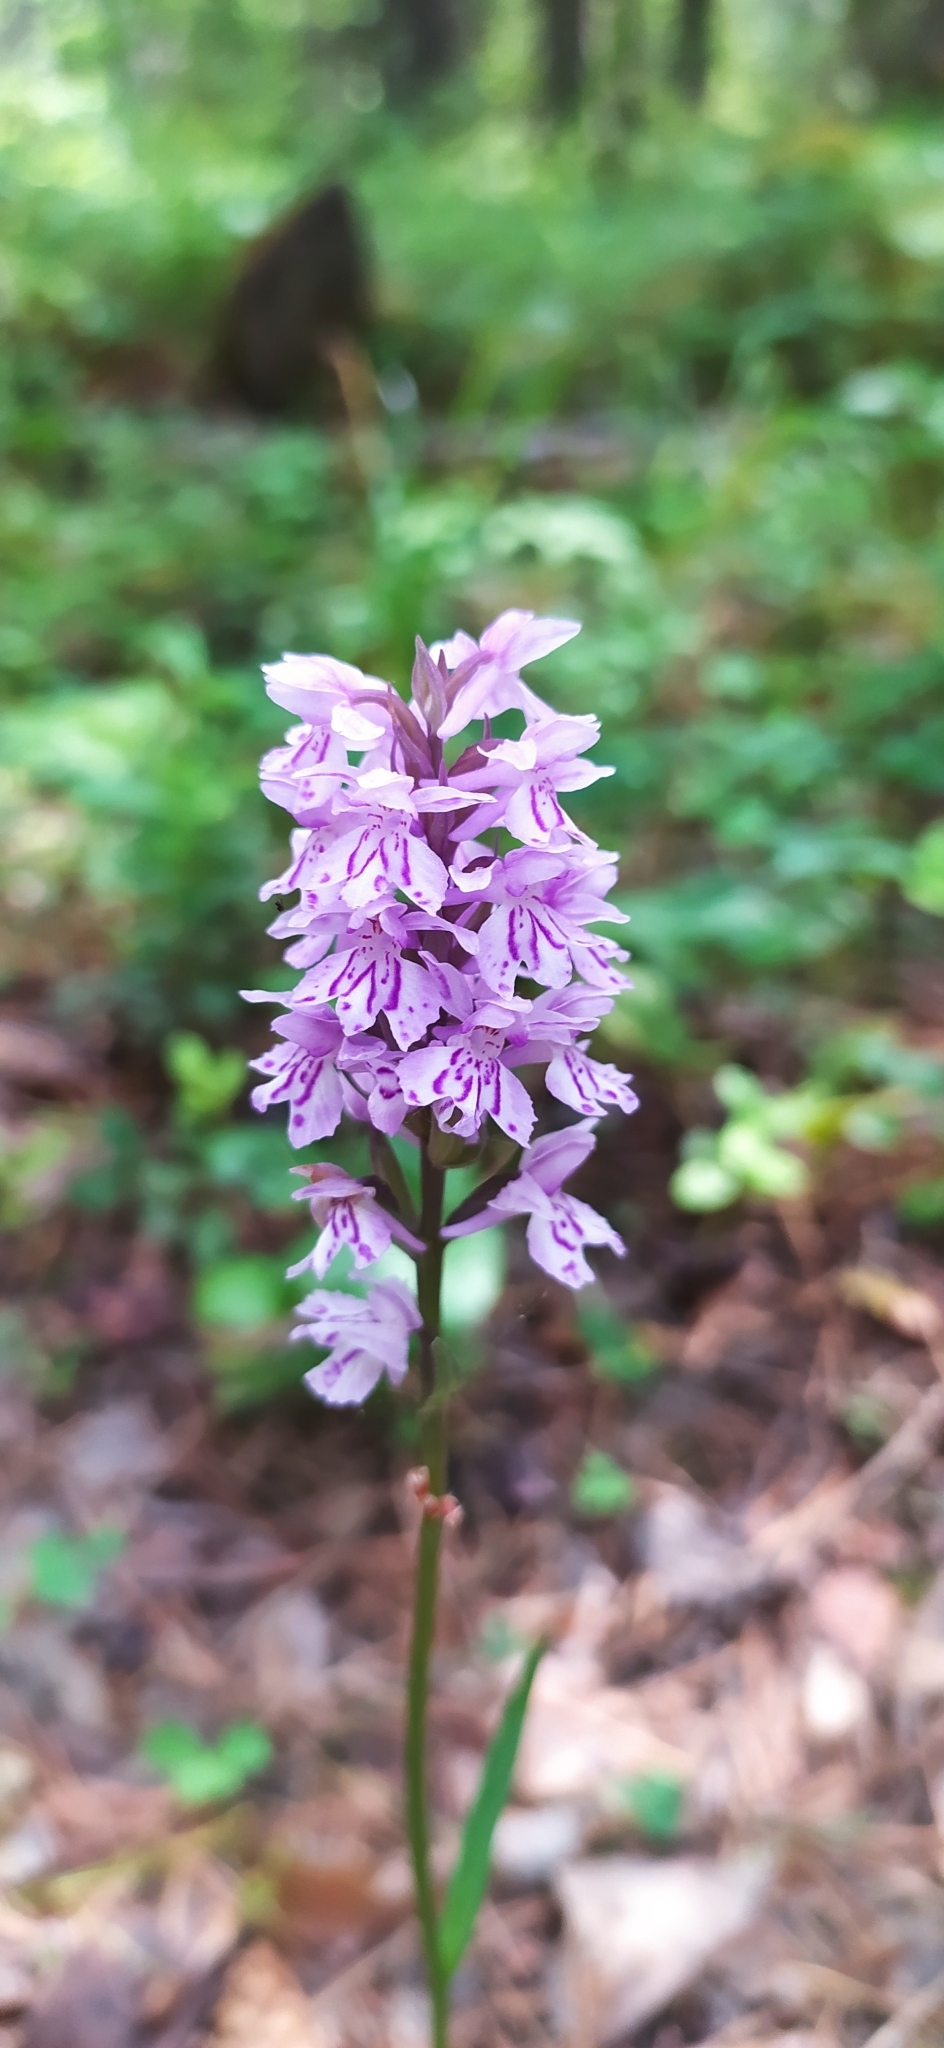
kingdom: Plantae
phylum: Tracheophyta
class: Liliopsida
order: Asparagales
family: Orchidaceae
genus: Dactylorhiza
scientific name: Dactylorhiza maculata
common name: Heath spotted-orchid
